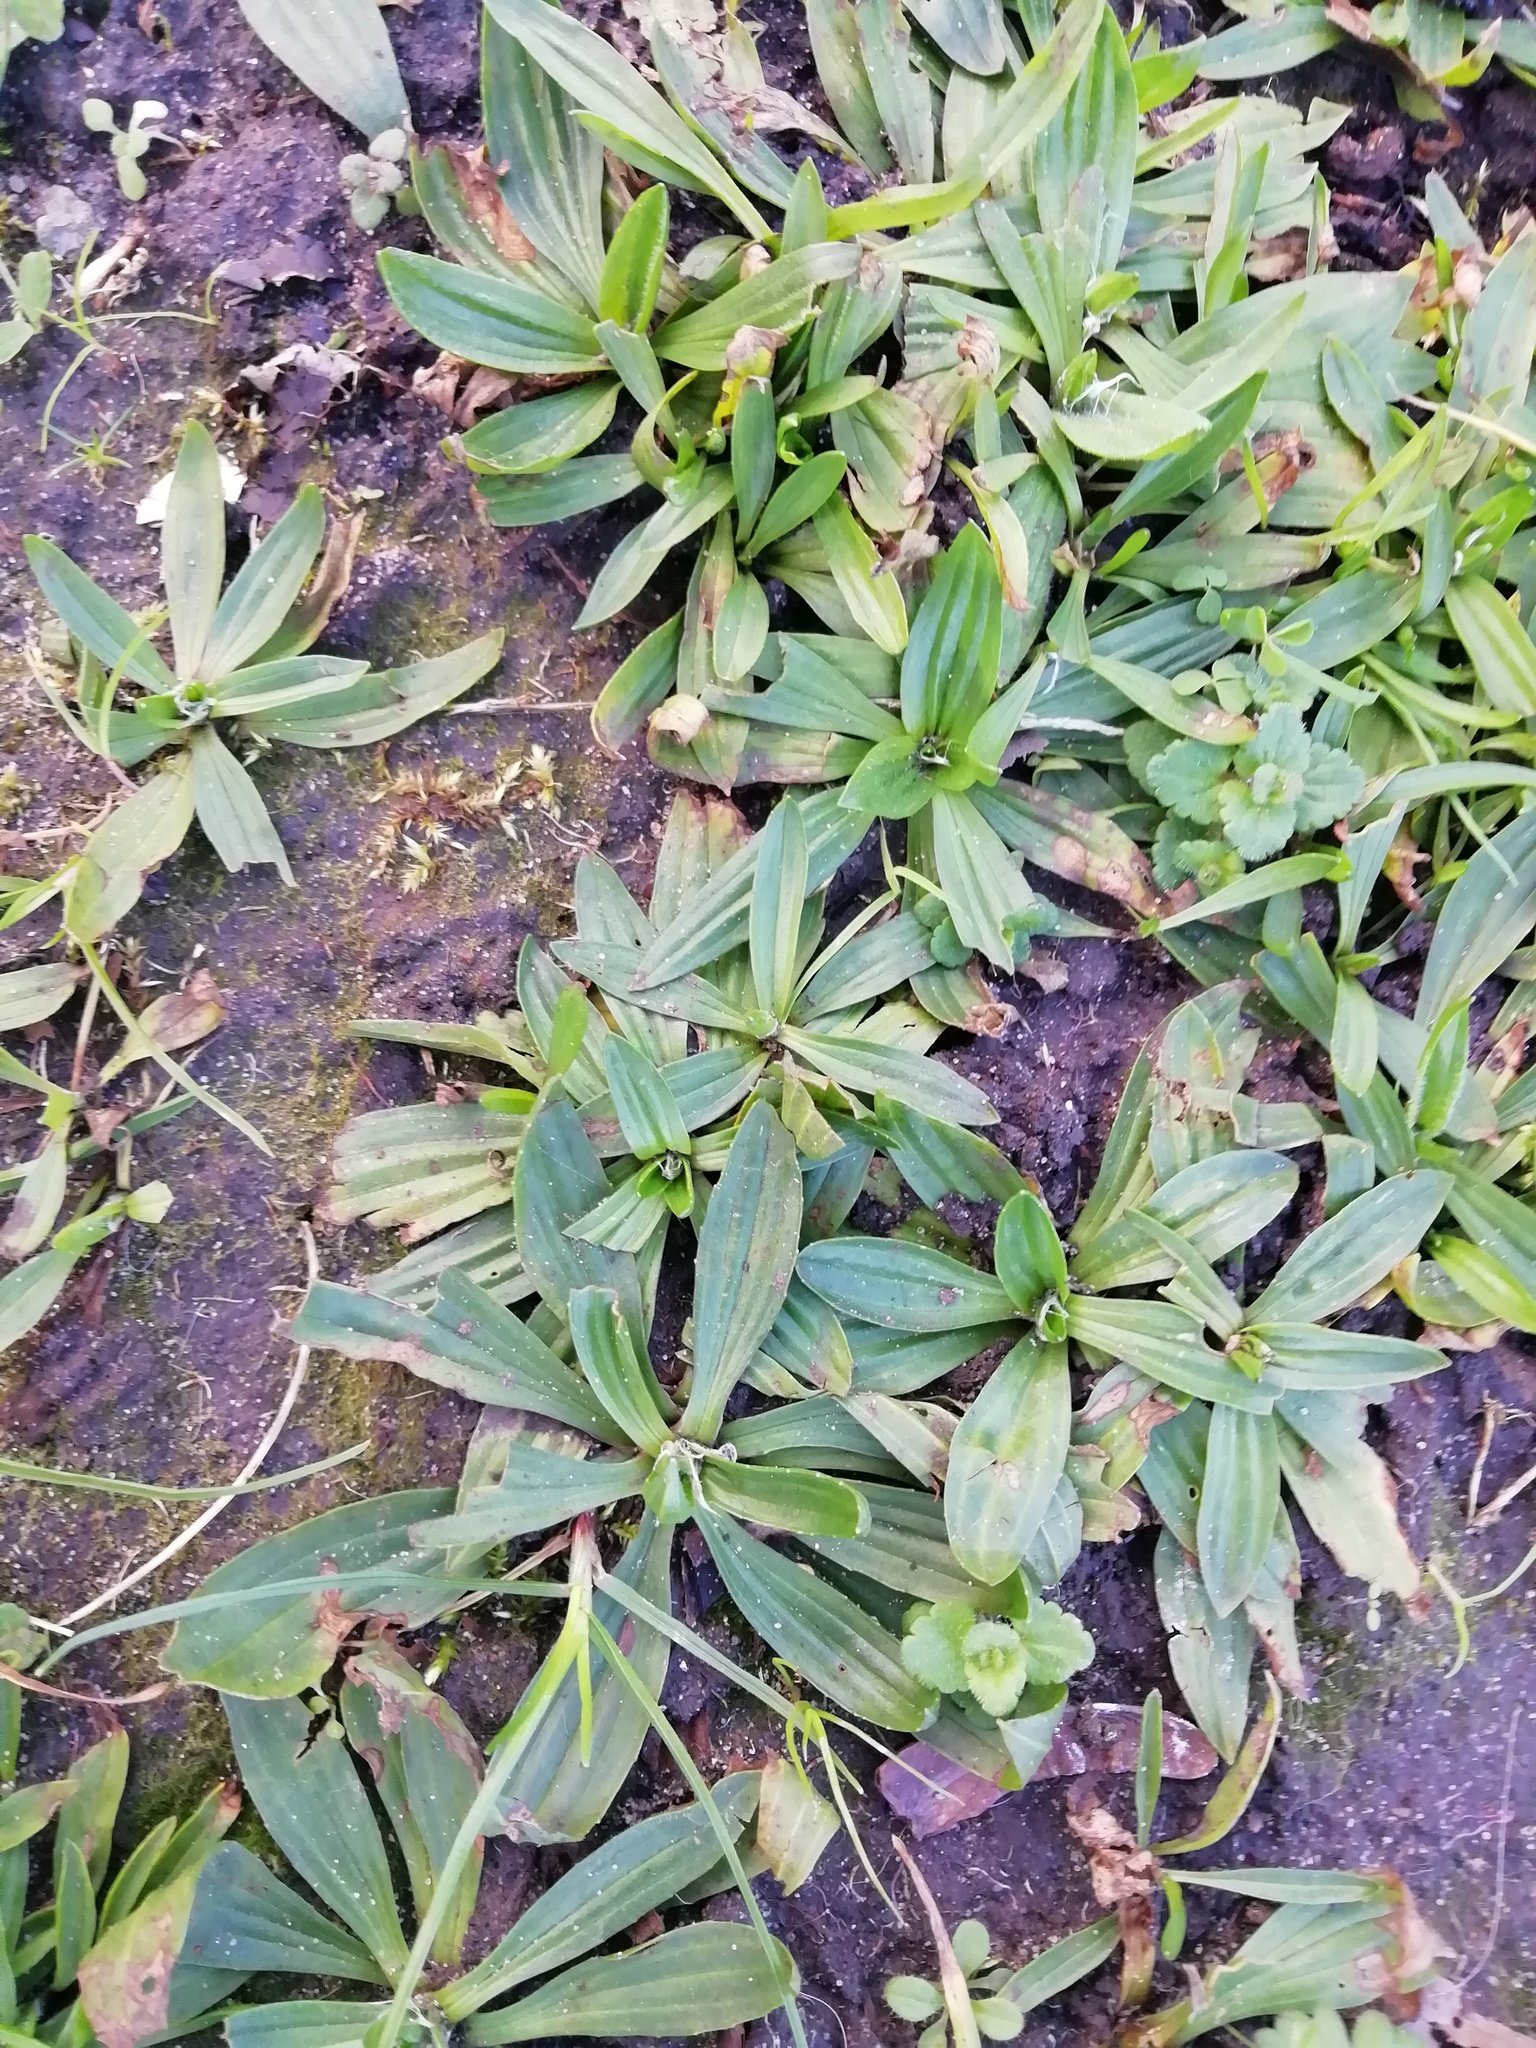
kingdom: Plantae
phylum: Tracheophyta
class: Magnoliopsida
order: Lamiales
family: Plantaginaceae
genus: Plantago
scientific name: Plantago lanceolata
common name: Ribwort plantain
